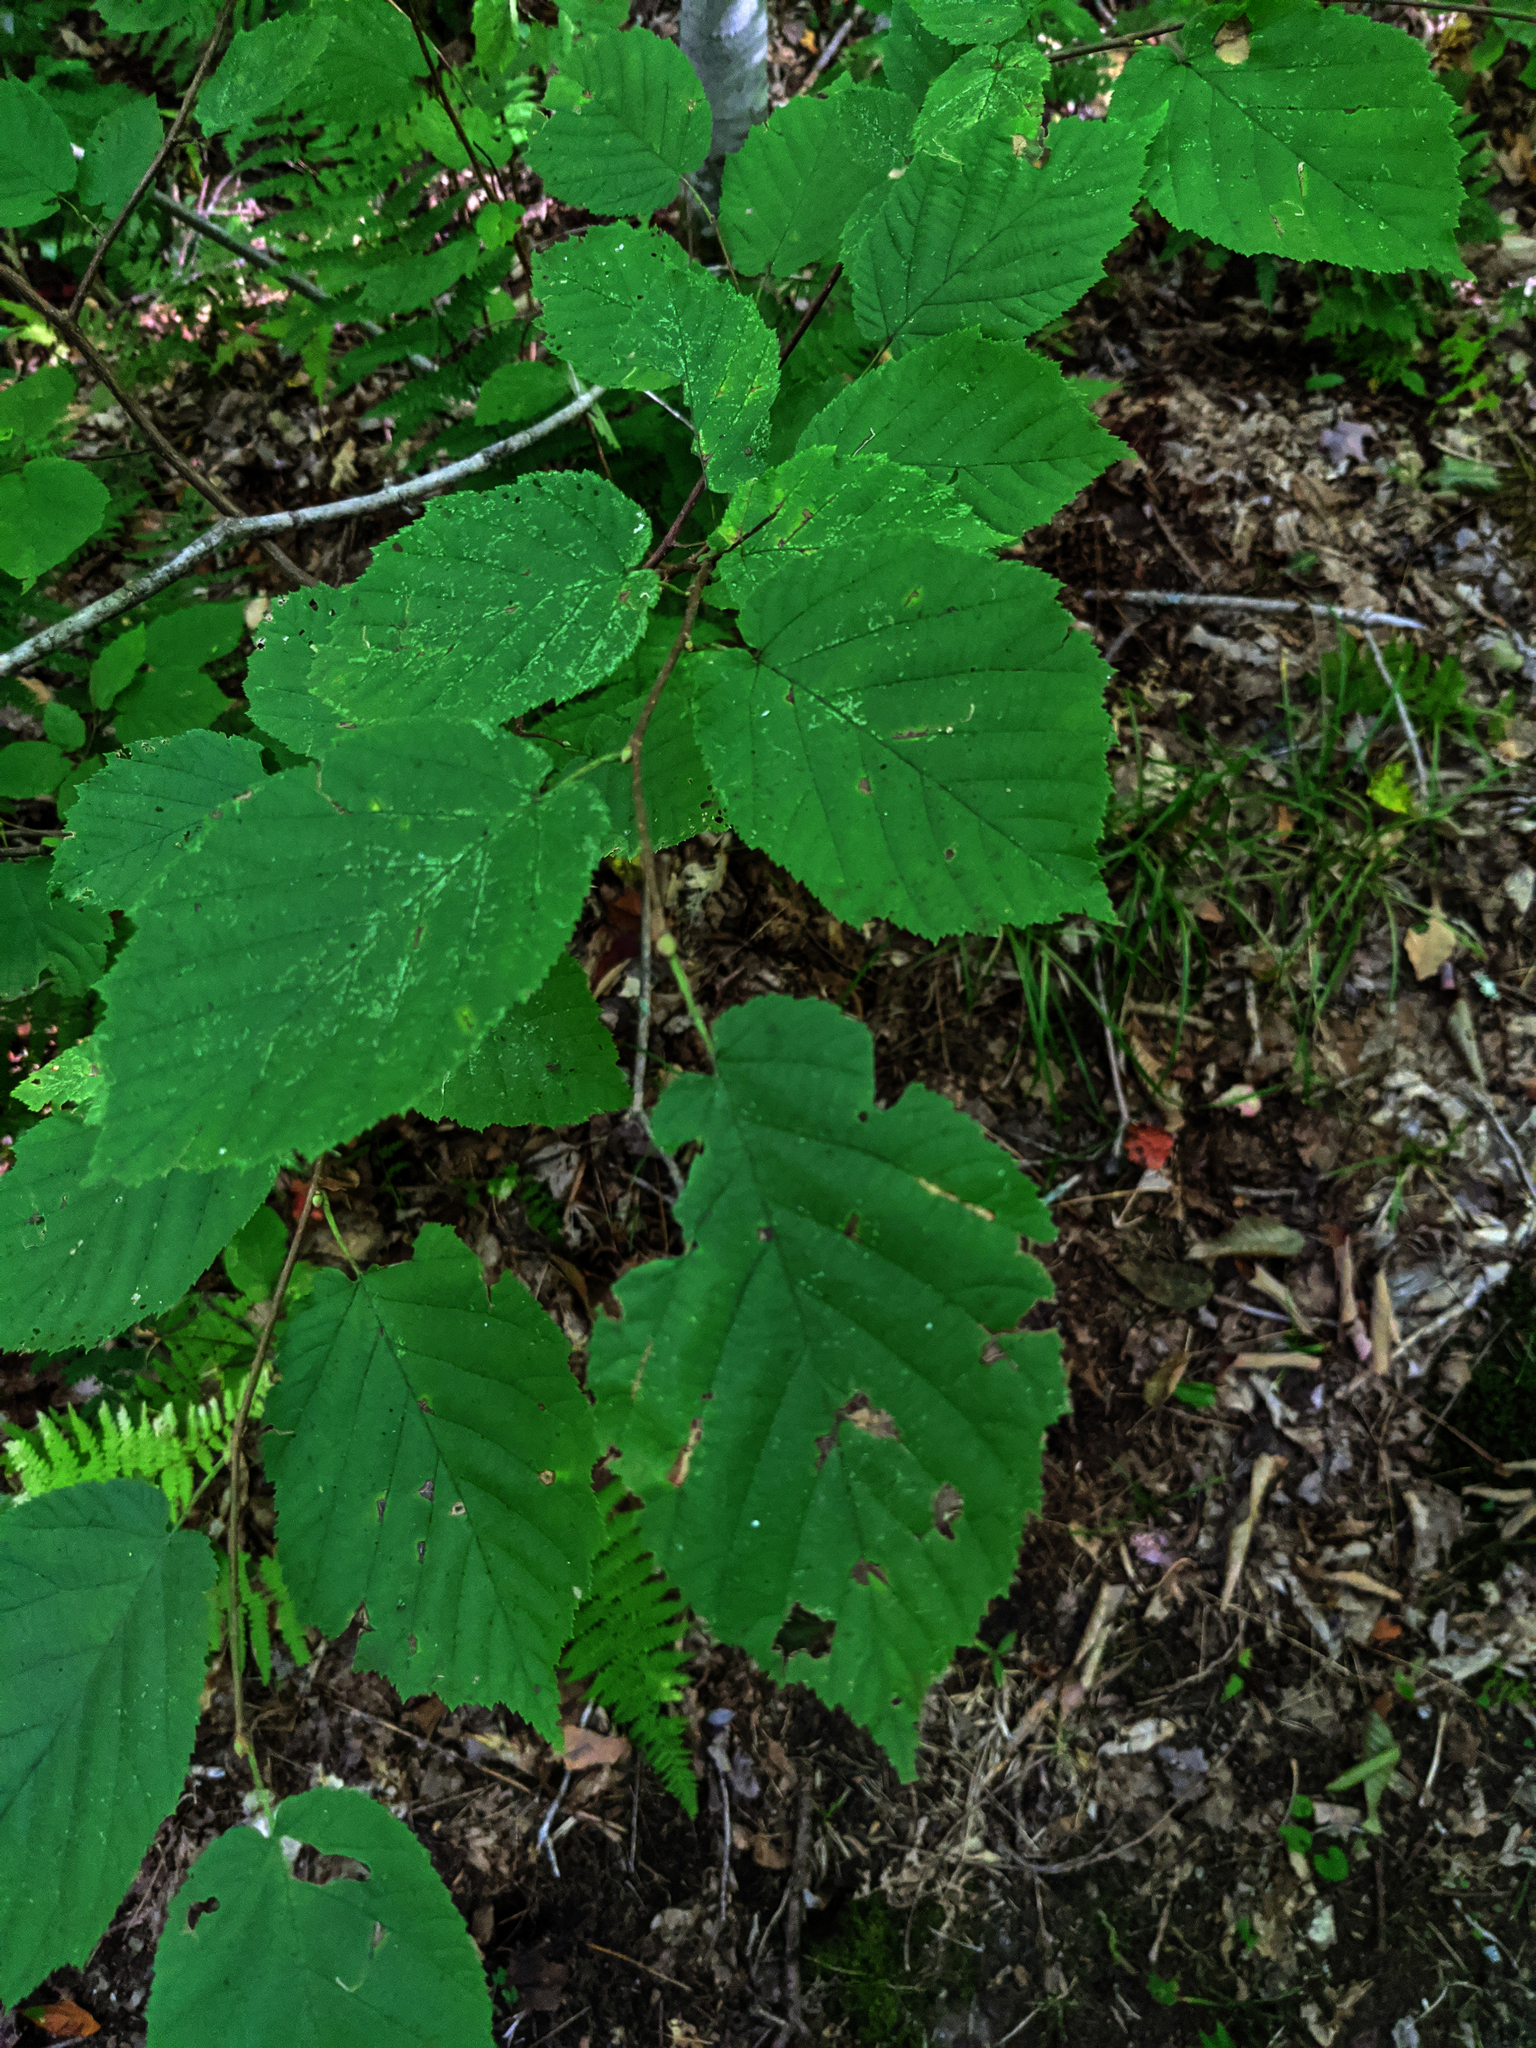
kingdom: Plantae
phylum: Tracheophyta
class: Magnoliopsida
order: Fagales
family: Betulaceae
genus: Corylus
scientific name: Corylus cornuta
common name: Beaked hazel
